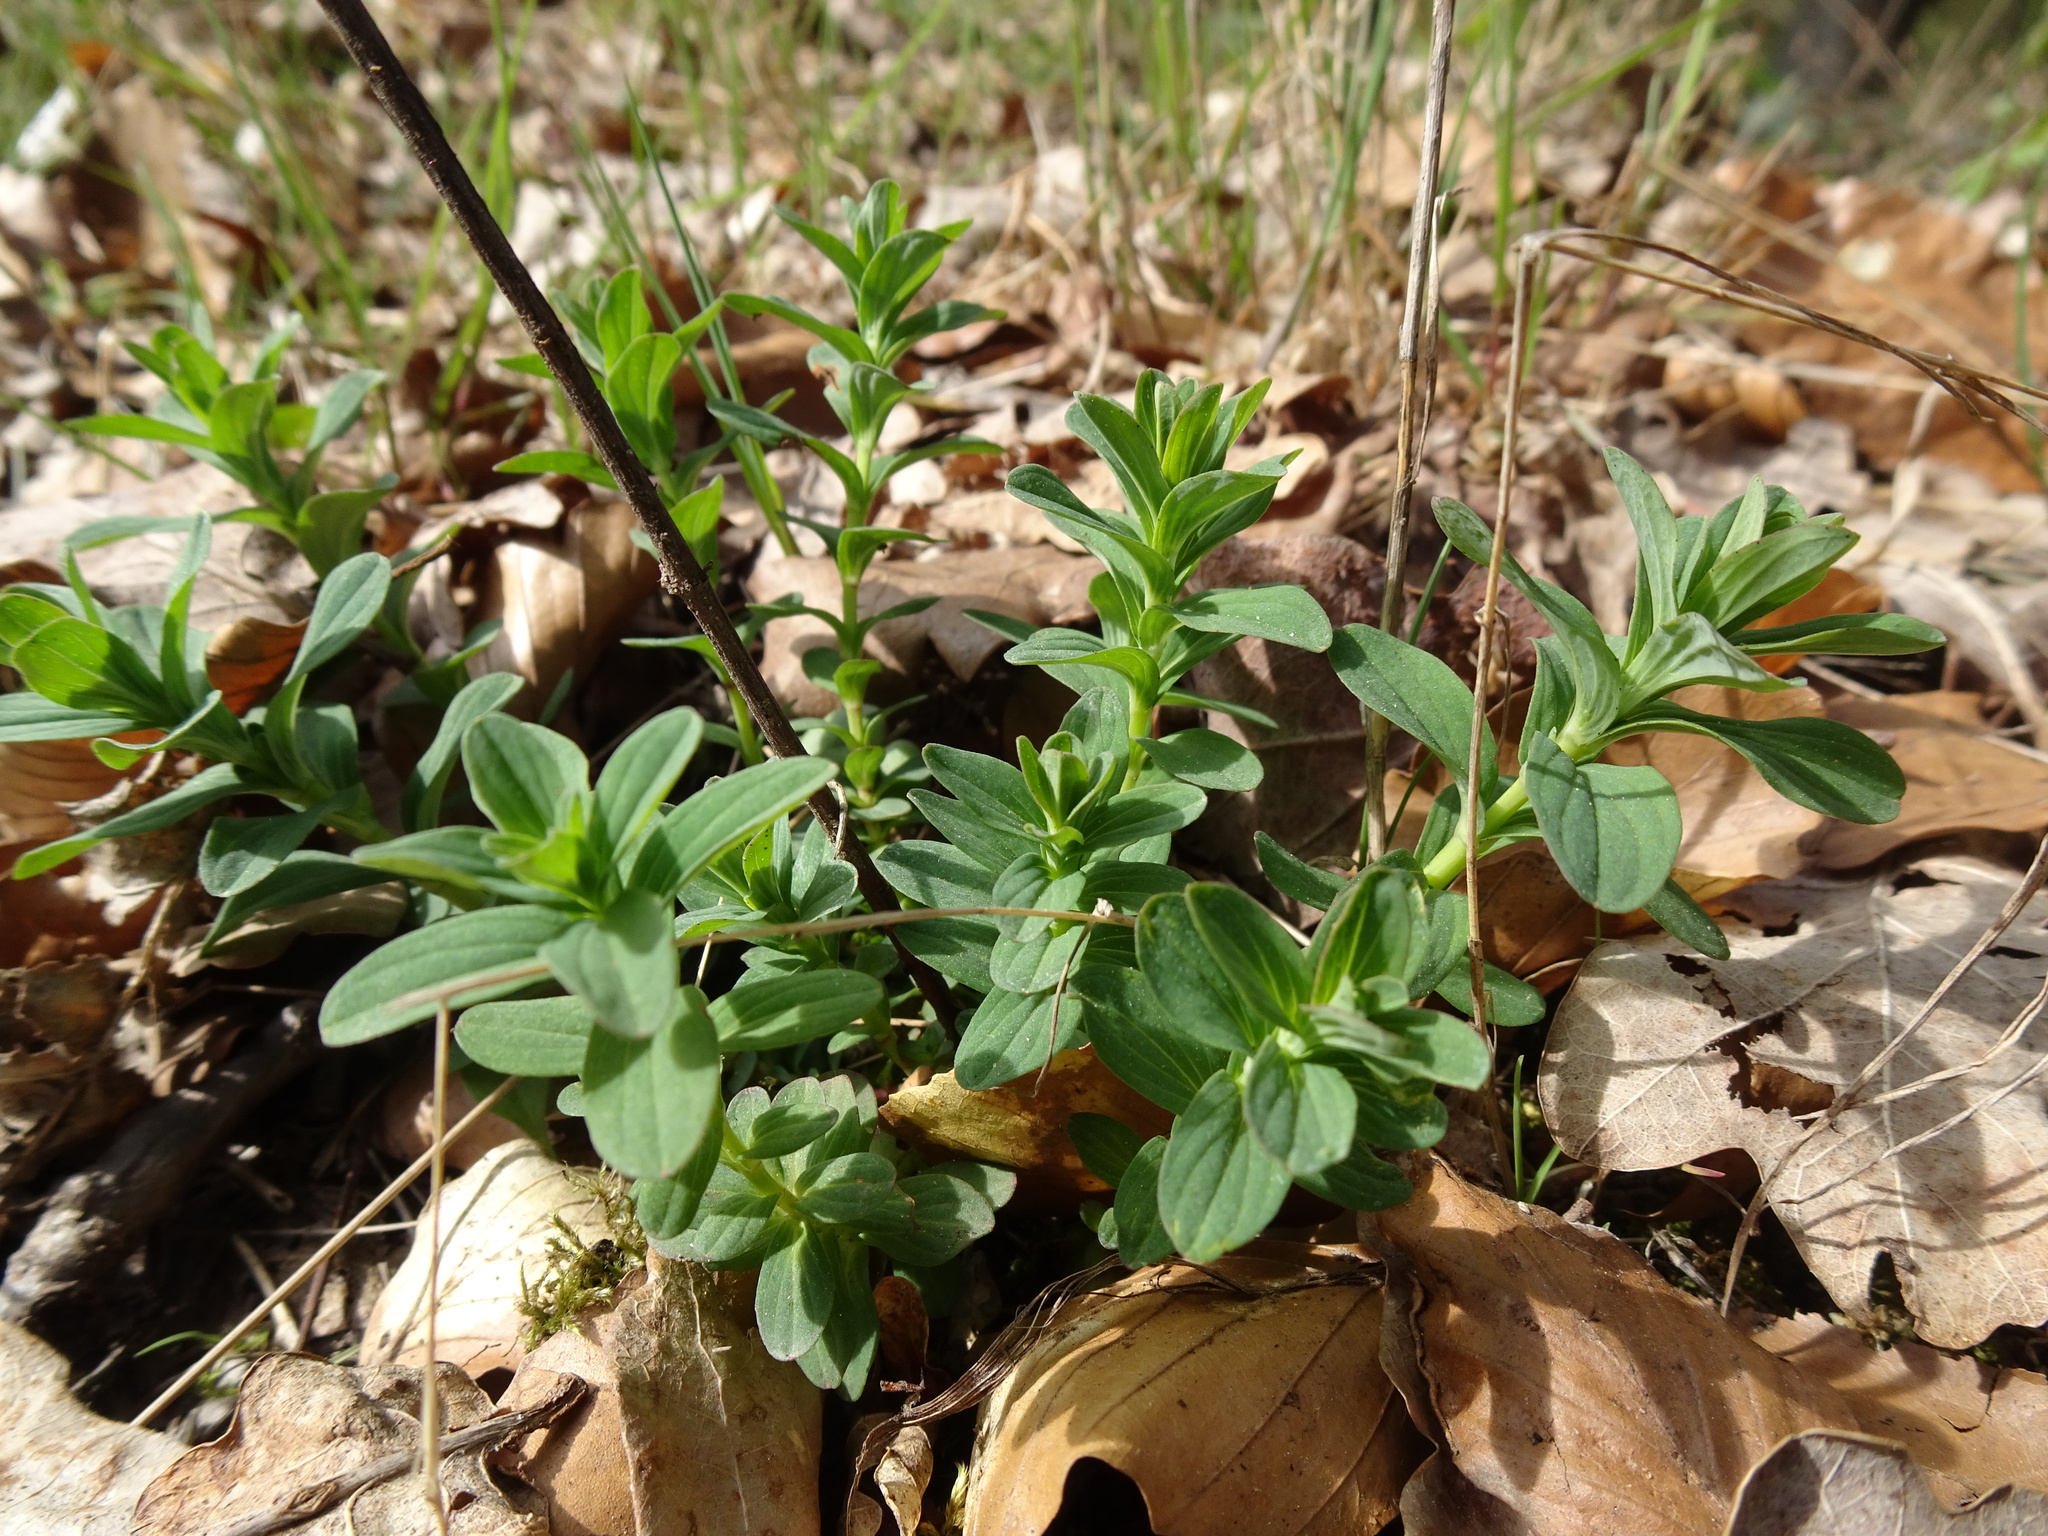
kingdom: Plantae
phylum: Tracheophyta
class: Magnoliopsida
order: Malpighiales
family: Hypericaceae
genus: Hypericum
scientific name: Hypericum perforatum
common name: Common st. johnswort
